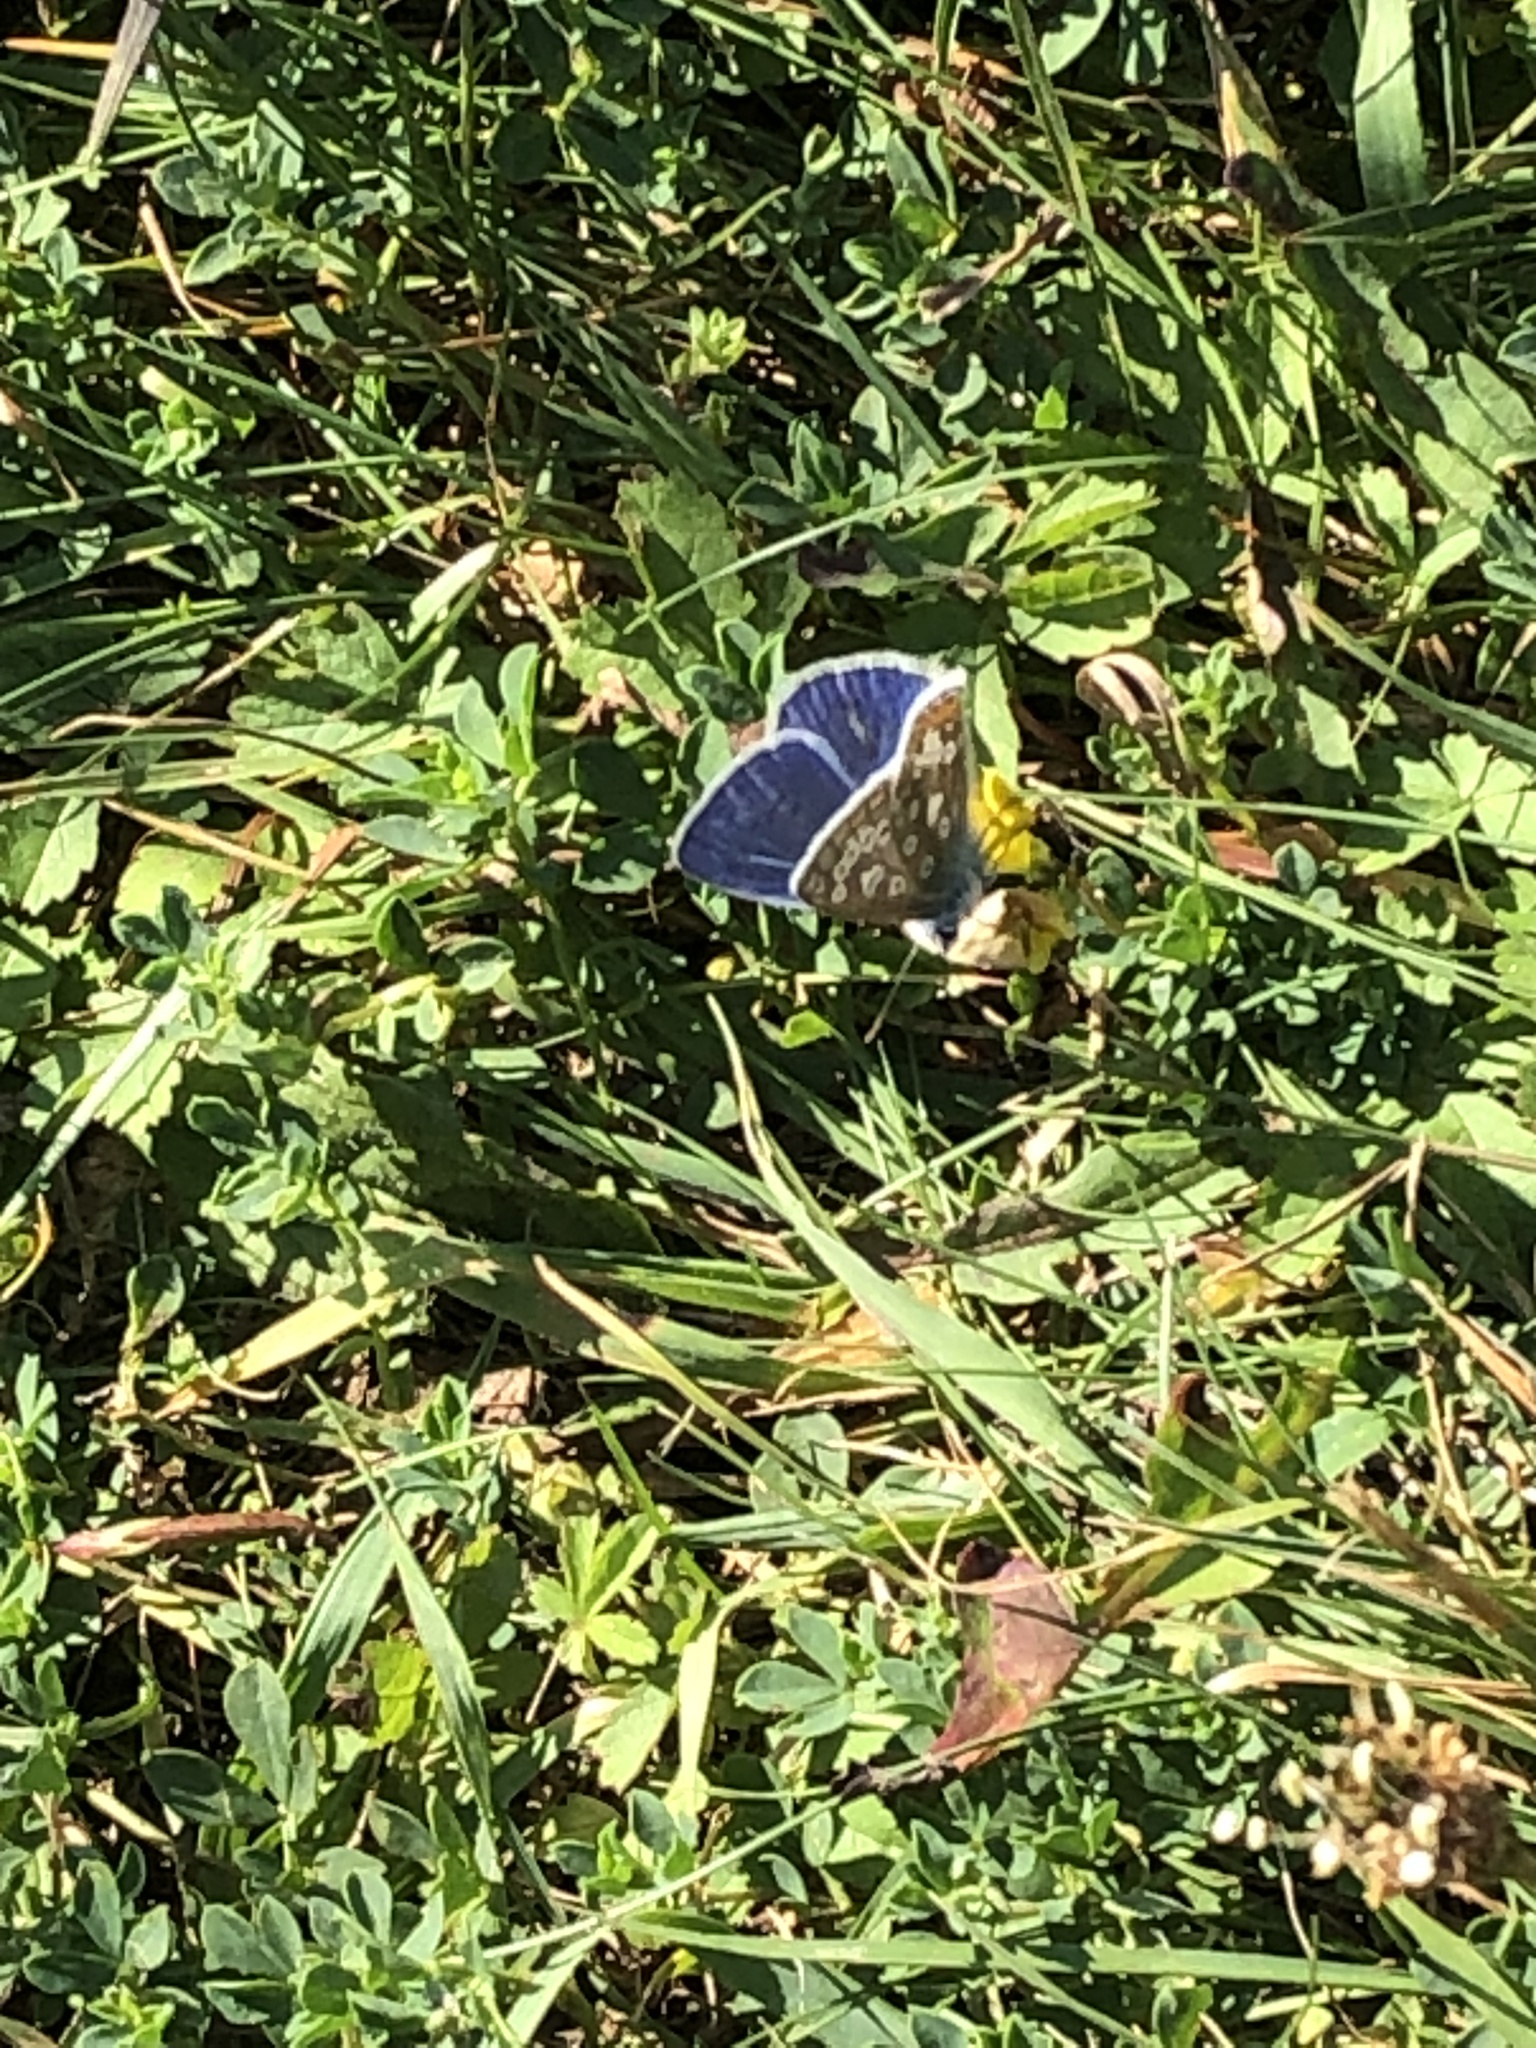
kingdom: Animalia
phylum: Arthropoda
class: Insecta
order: Lepidoptera
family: Lycaenidae
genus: Polyommatus
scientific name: Polyommatus icarus
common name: Common blue
